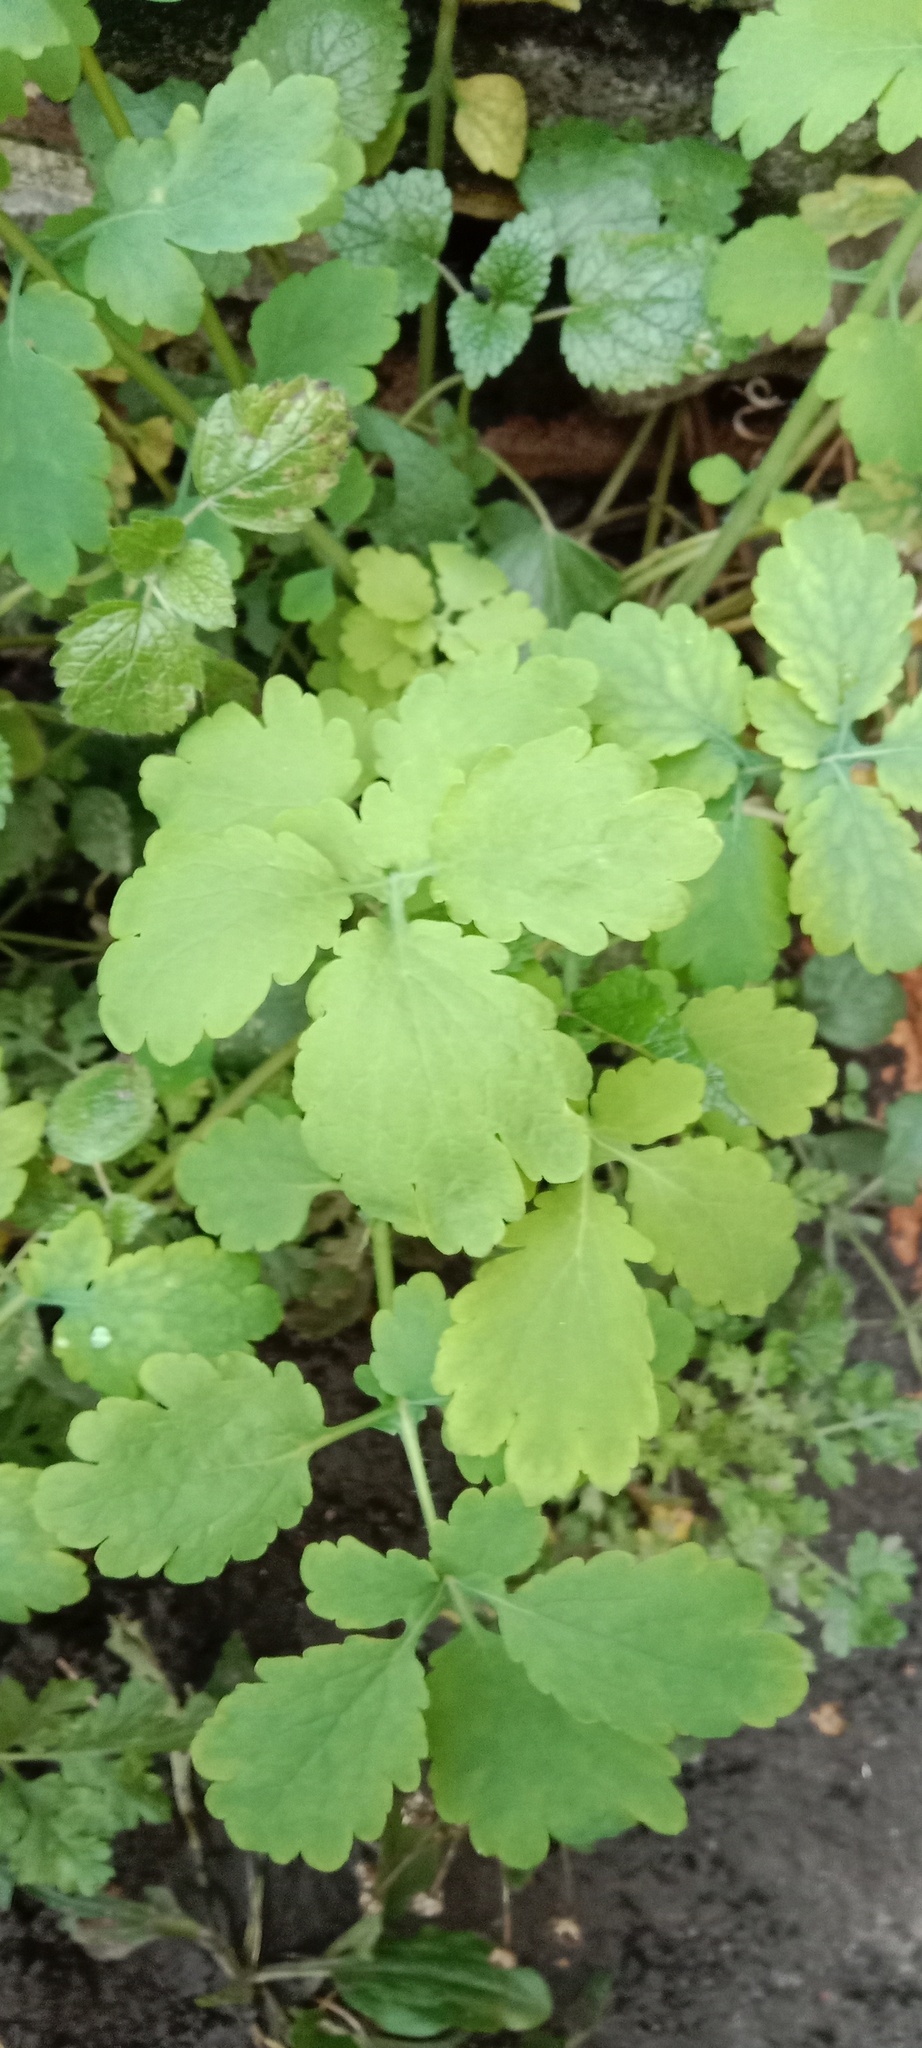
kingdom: Plantae
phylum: Tracheophyta
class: Magnoliopsida
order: Ranunculales
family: Papaveraceae
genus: Chelidonium
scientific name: Chelidonium majus
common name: Greater celandine
